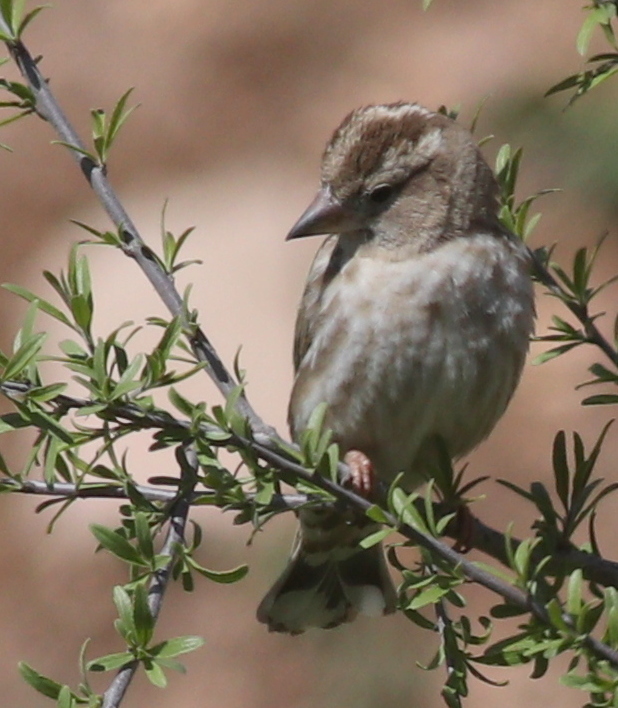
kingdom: Animalia
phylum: Chordata
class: Aves
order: Passeriformes
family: Passeridae
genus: Petronia
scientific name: Petronia petronia
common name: Rock sparrow
